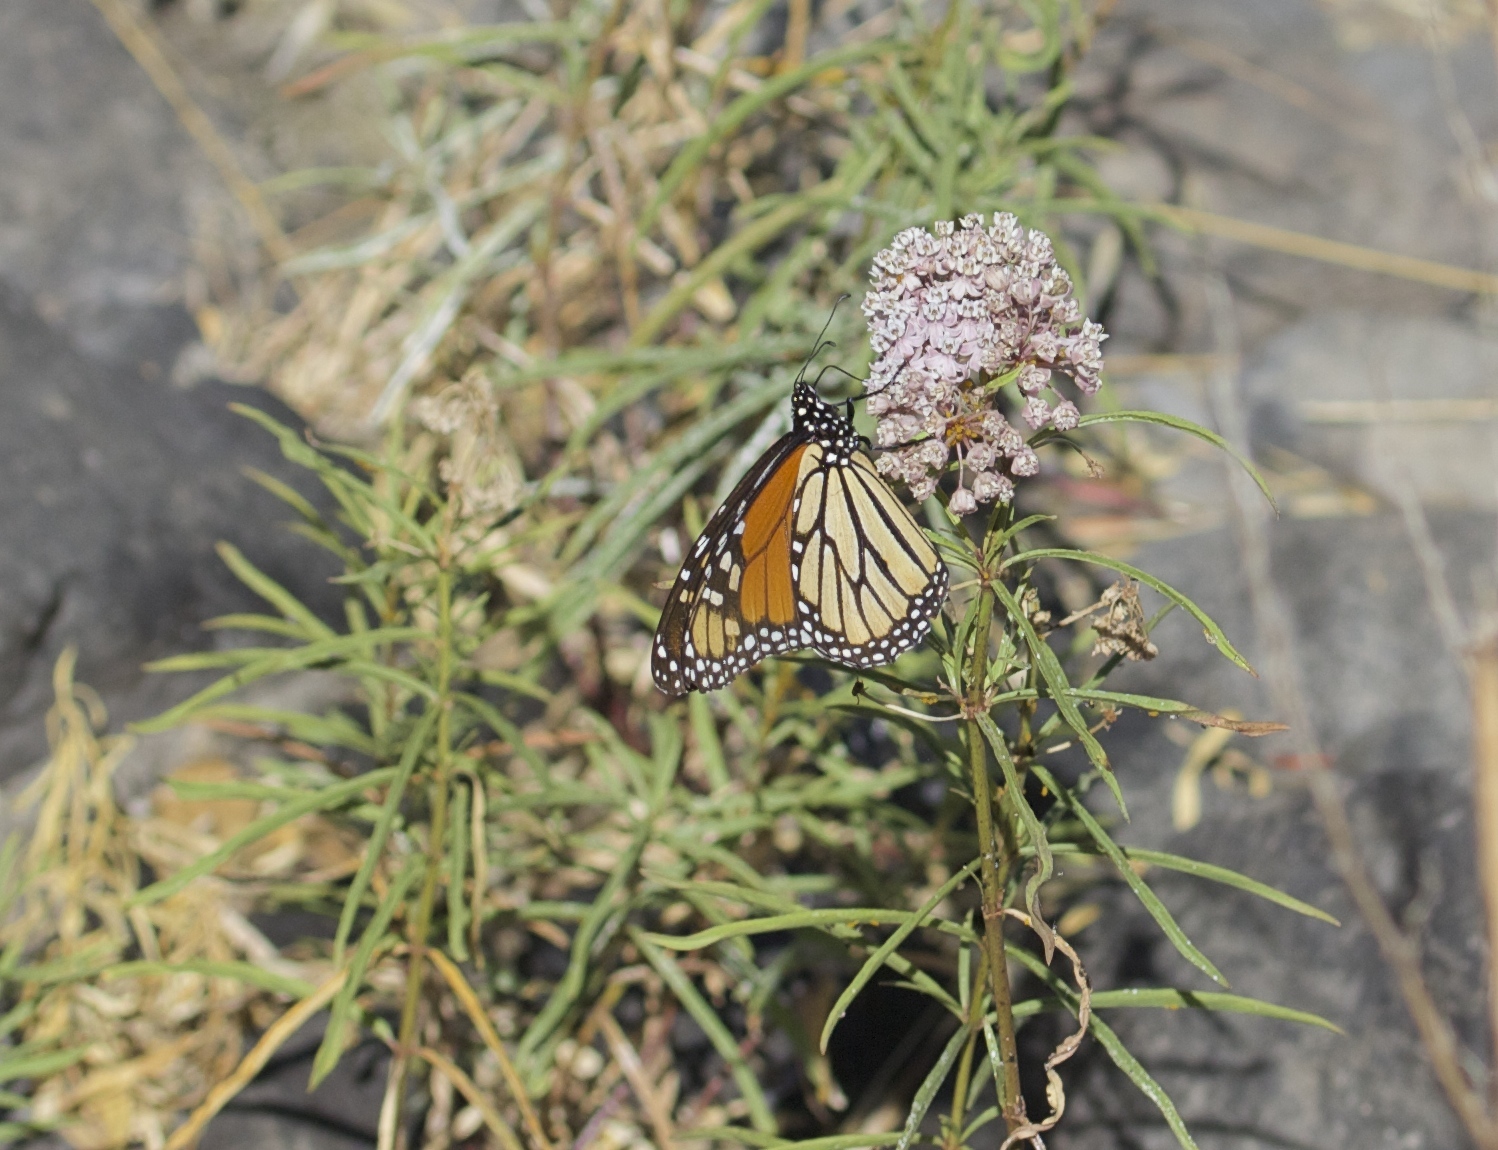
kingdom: Animalia
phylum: Arthropoda
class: Insecta
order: Lepidoptera
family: Nymphalidae
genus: Danaus
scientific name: Danaus plexippus
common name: Monarch
